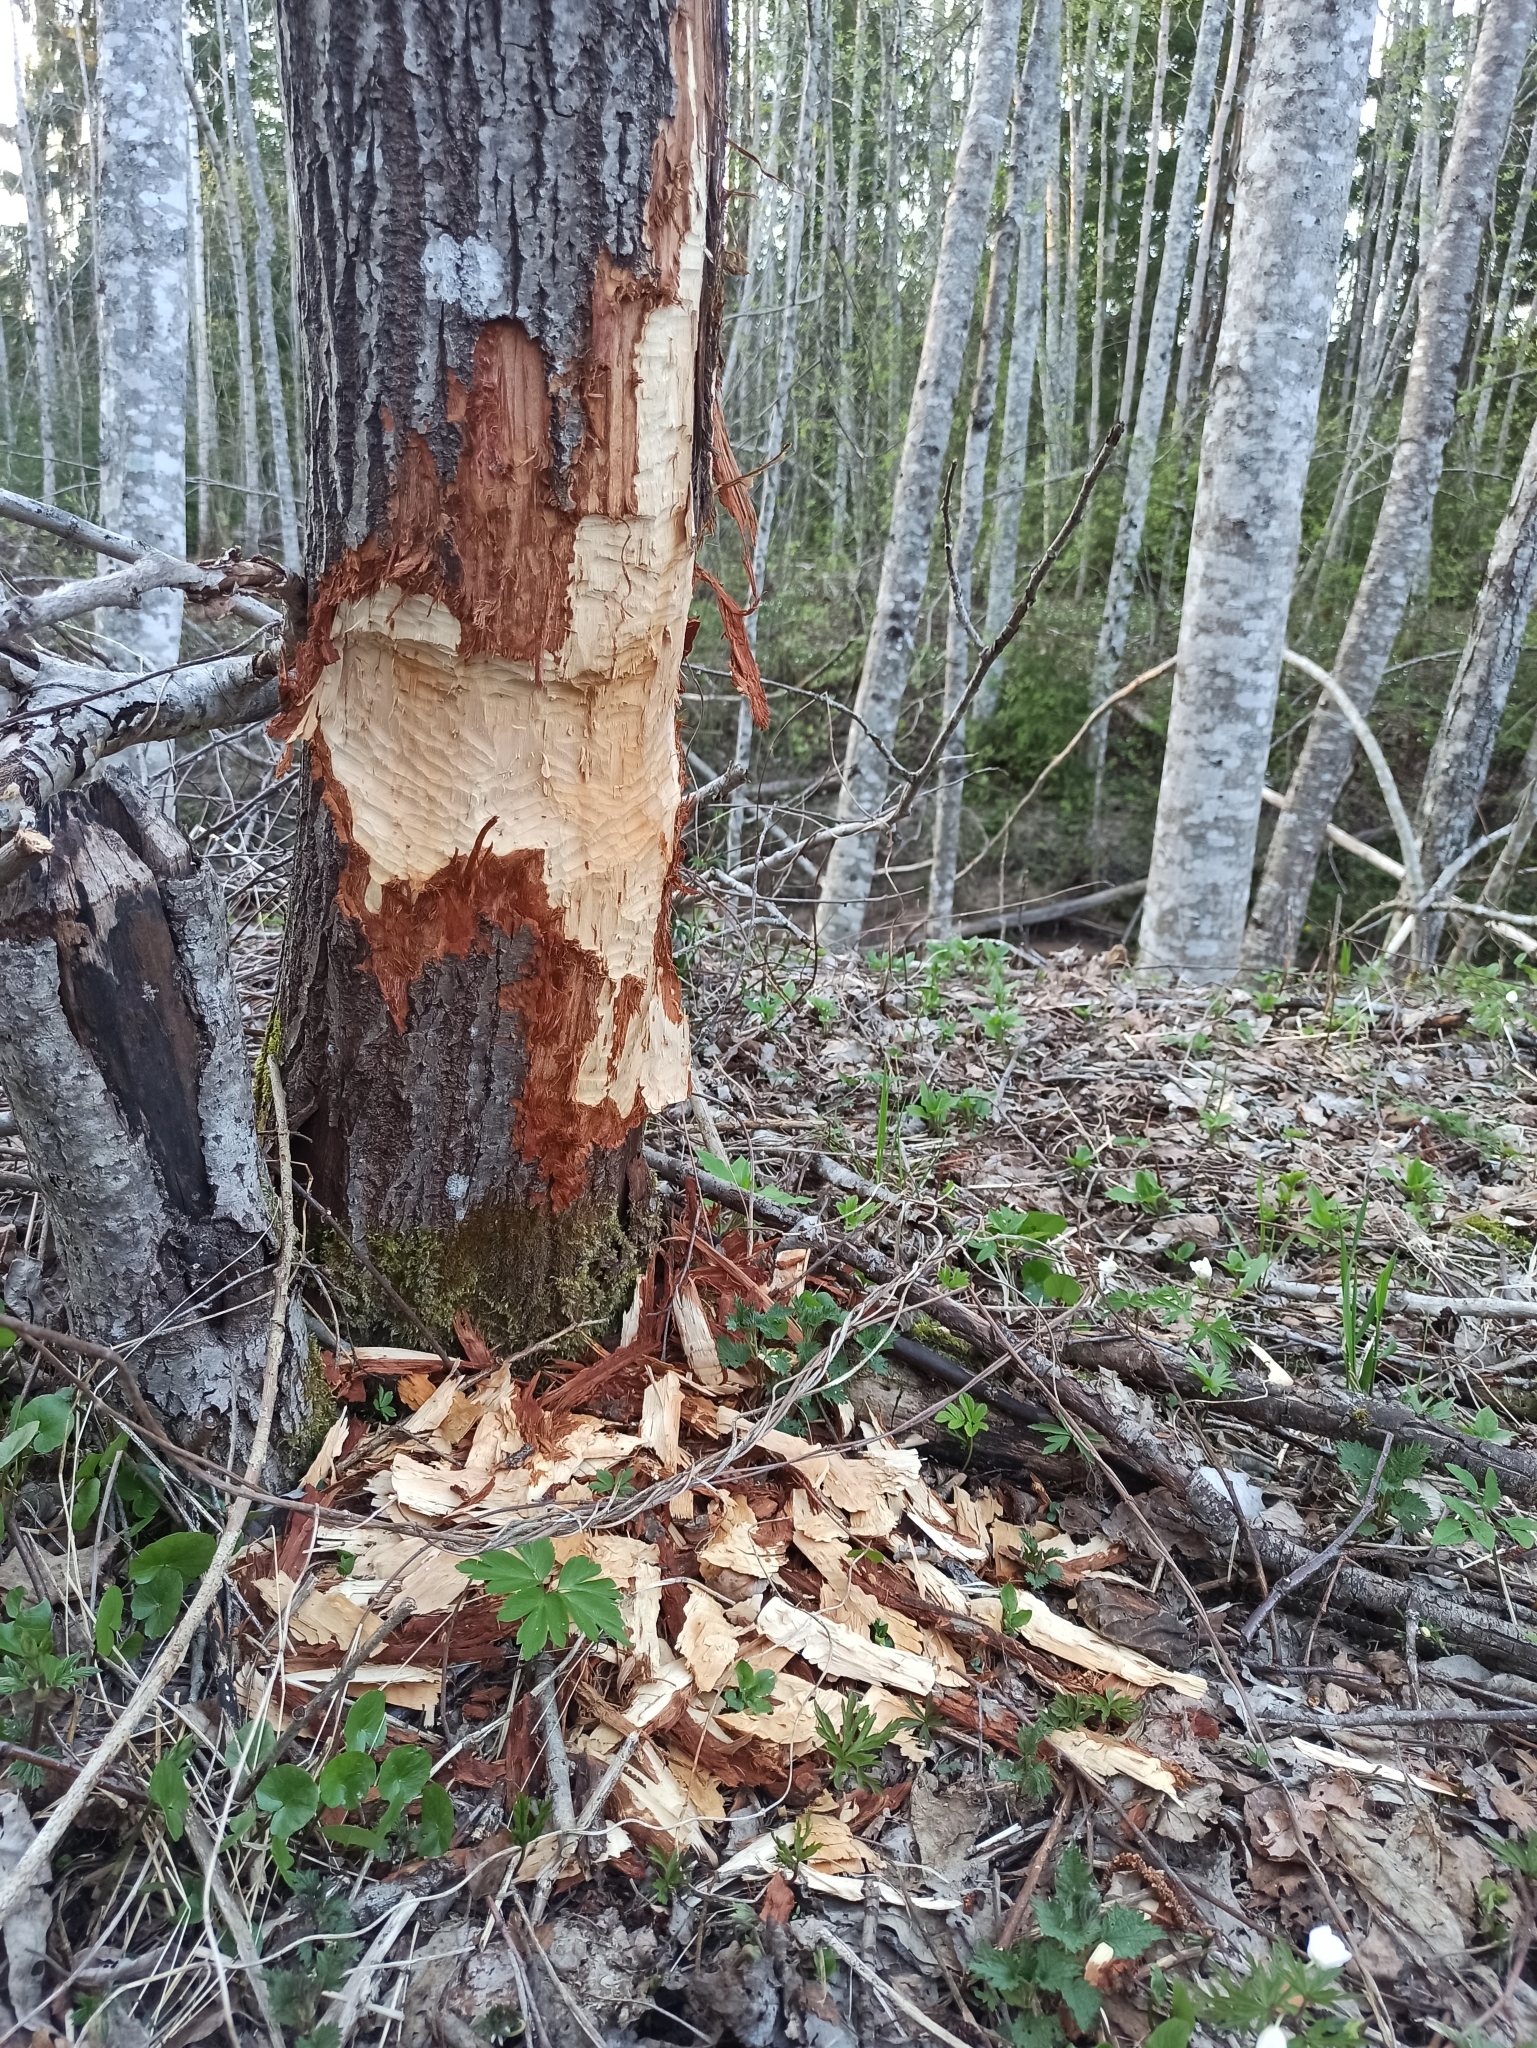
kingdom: Animalia
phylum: Chordata
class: Mammalia
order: Rodentia
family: Castoridae
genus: Castor
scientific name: Castor fiber
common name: Eurasian beaver
